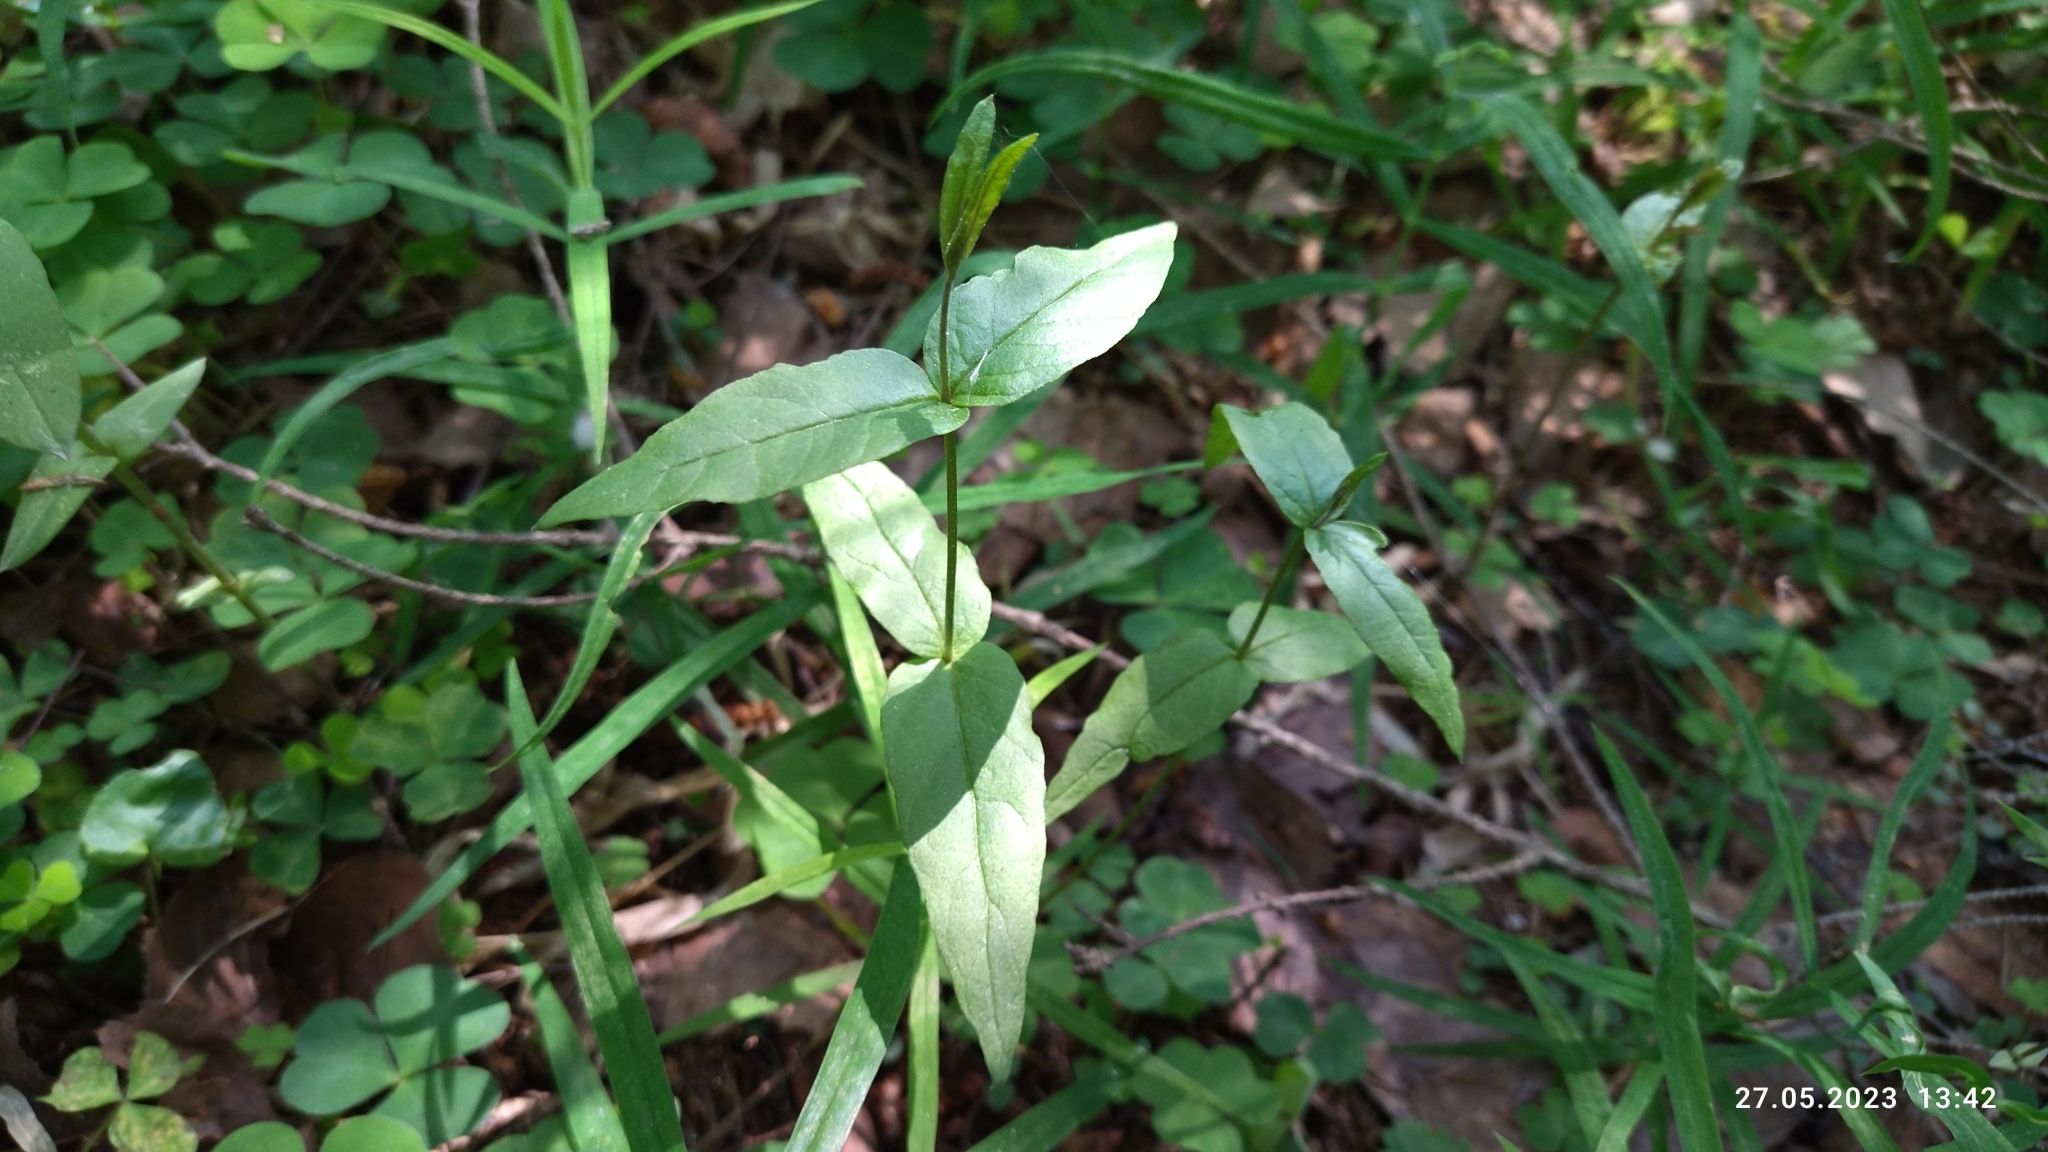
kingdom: Plantae
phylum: Tracheophyta
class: Magnoliopsida
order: Ericales
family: Primulaceae
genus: Lysimachia
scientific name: Lysimachia vulgaris
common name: Yellow loosestrife
